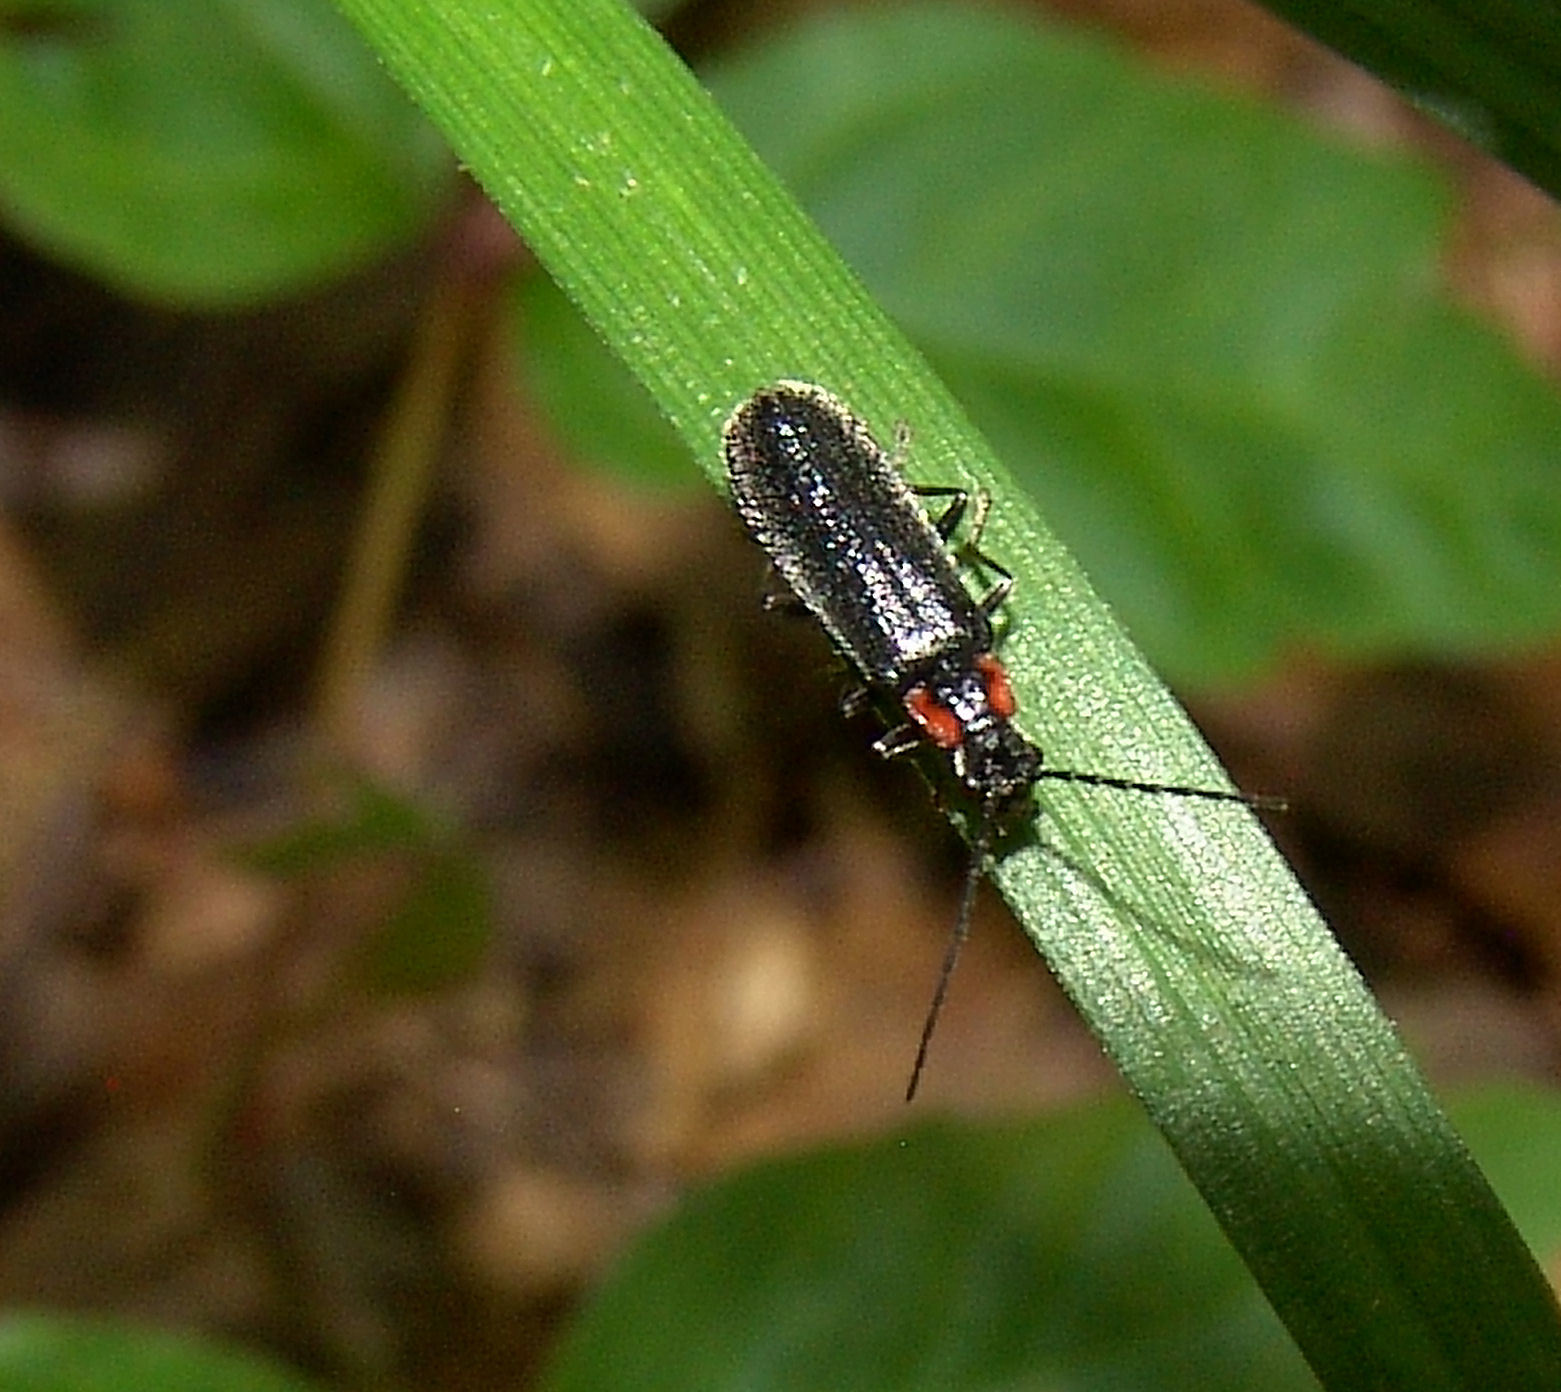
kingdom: Animalia
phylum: Arthropoda
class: Insecta
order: Coleoptera
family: Cantharidae
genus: Rhagonycha
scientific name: Rhagonycha angulata
